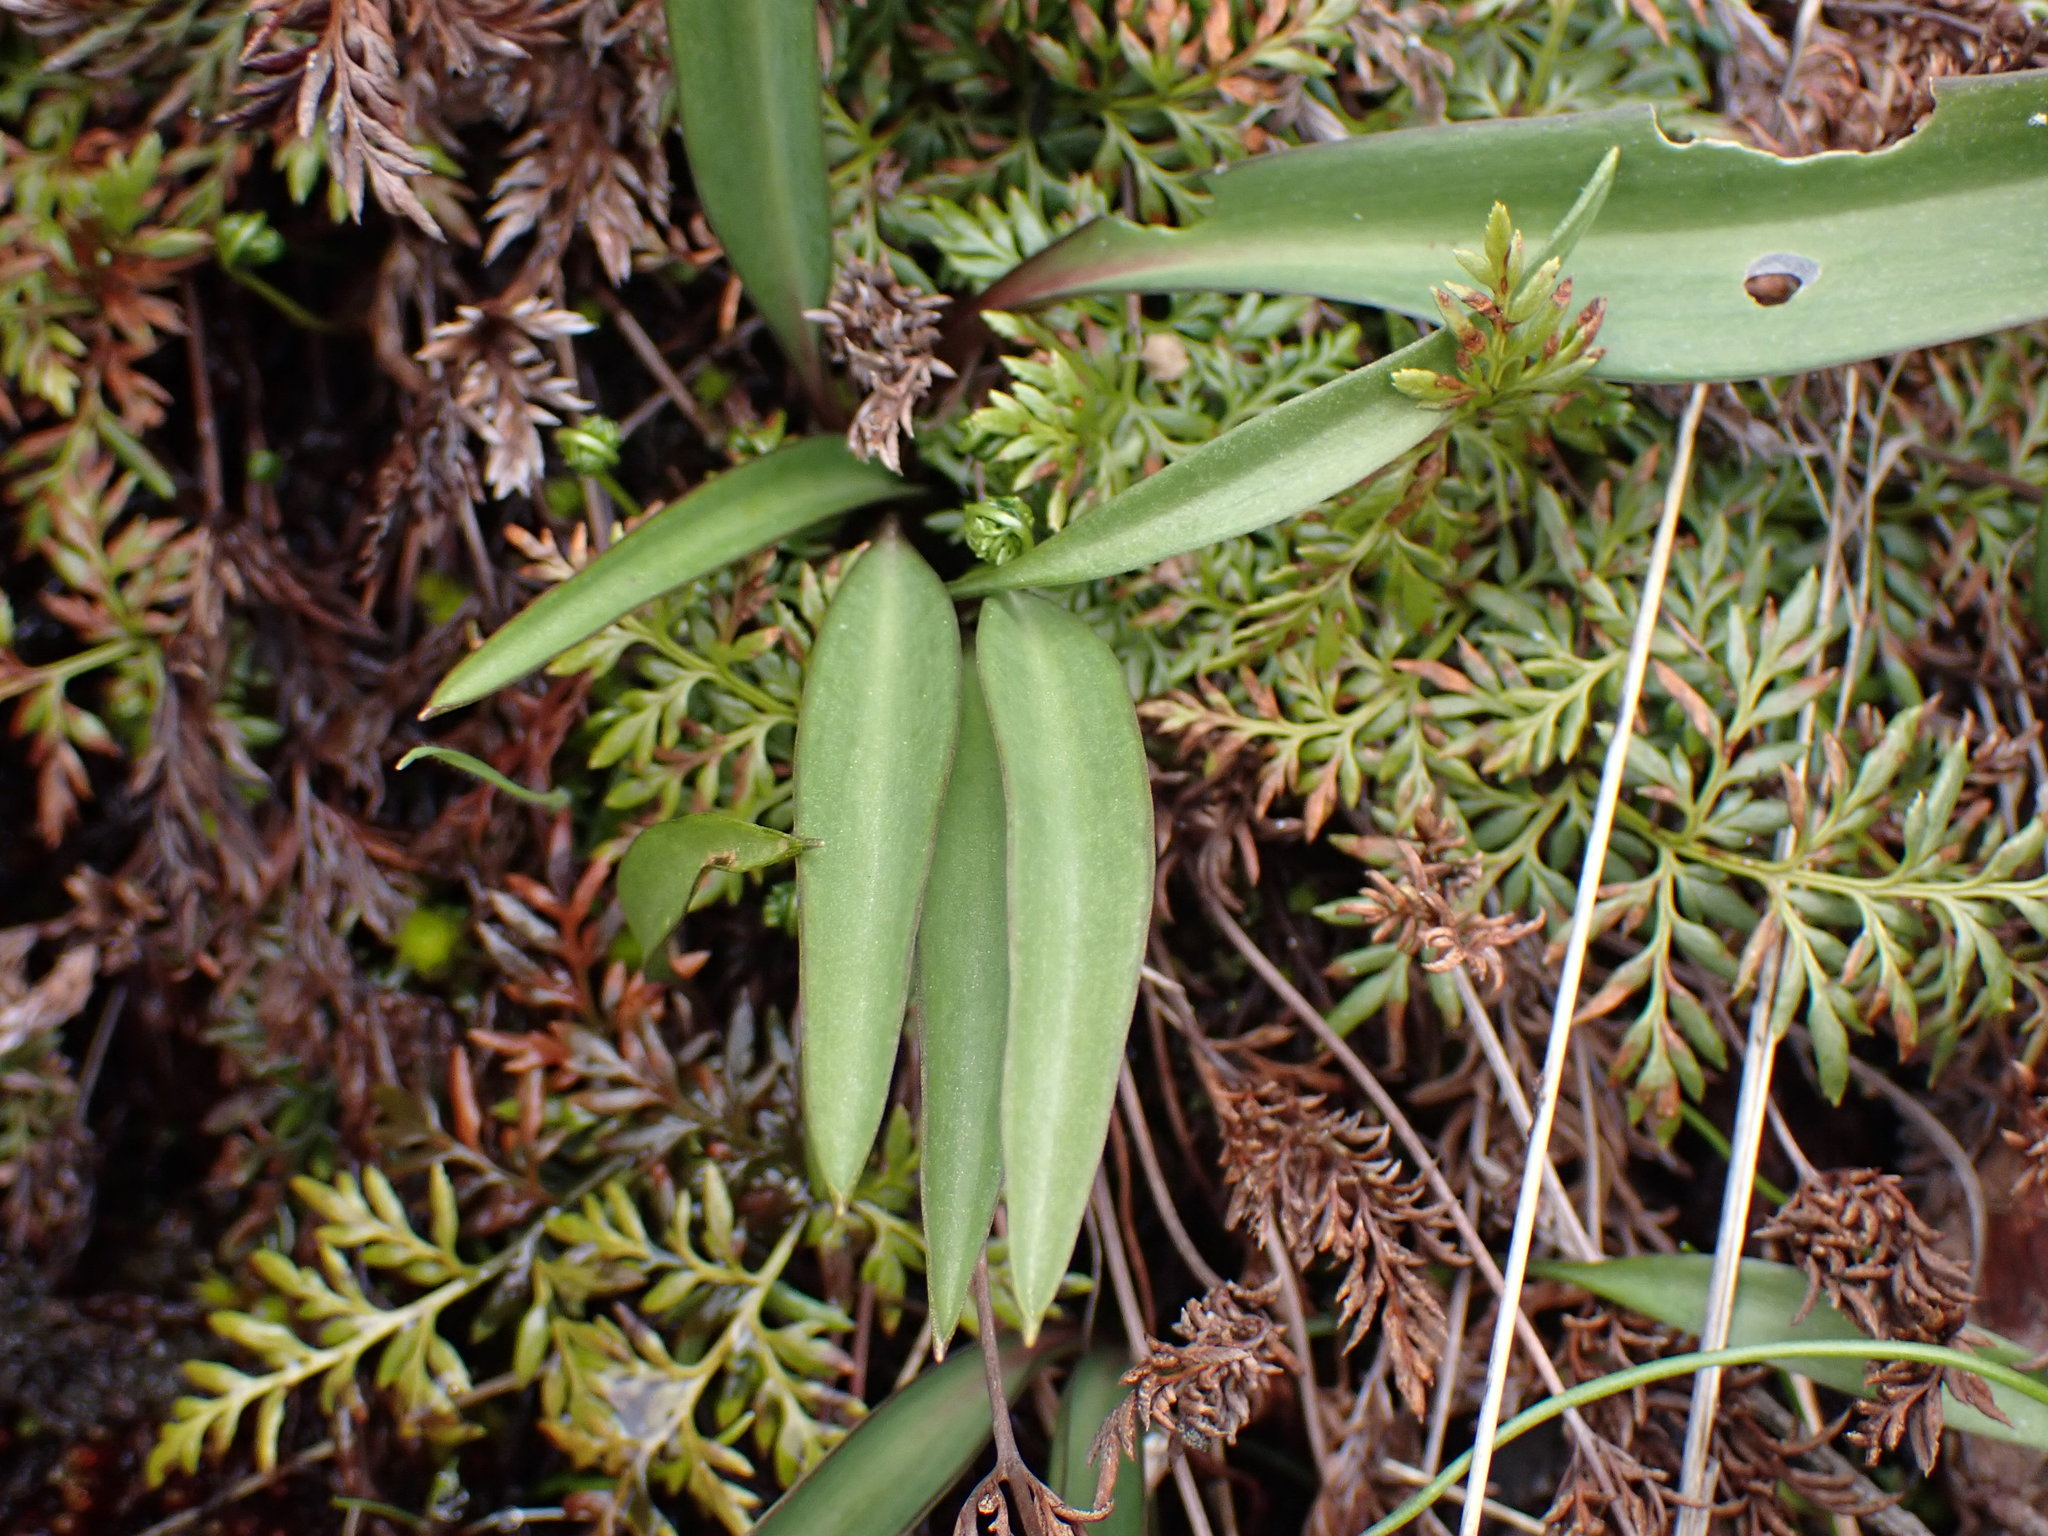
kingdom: Plantae
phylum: Tracheophyta
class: Liliopsida
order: Liliales
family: Liliaceae
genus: Fritillaria
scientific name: Fritillaria affinis
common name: Ojai fritillary
